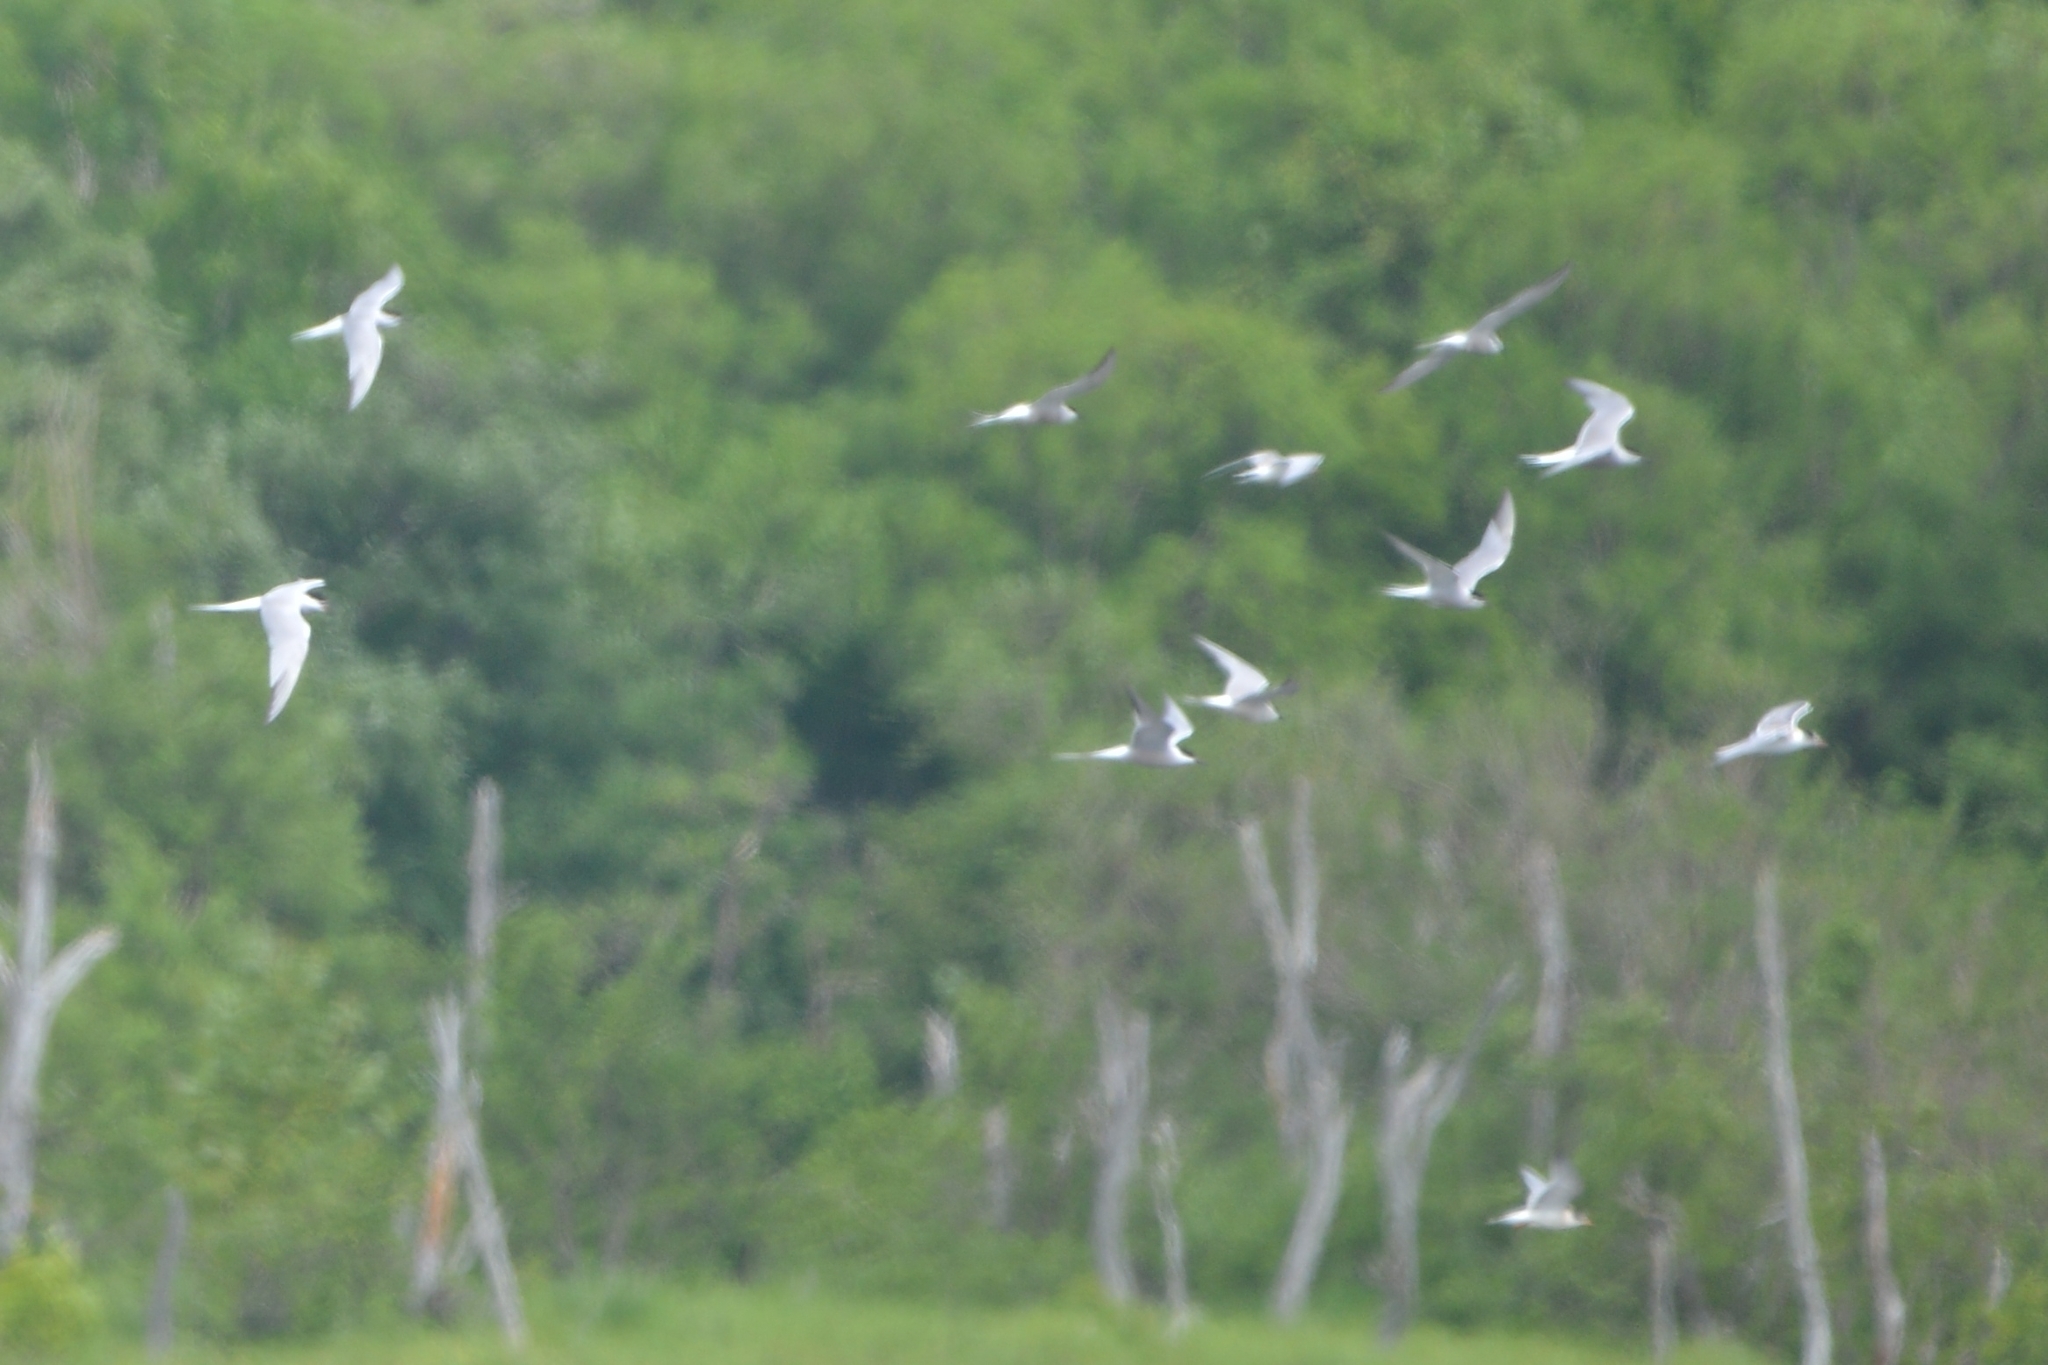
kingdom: Animalia
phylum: Chordata
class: Aves
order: Charadriiformes
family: Laridae
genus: Sterna
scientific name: Sterna hirundo
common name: Common tern
